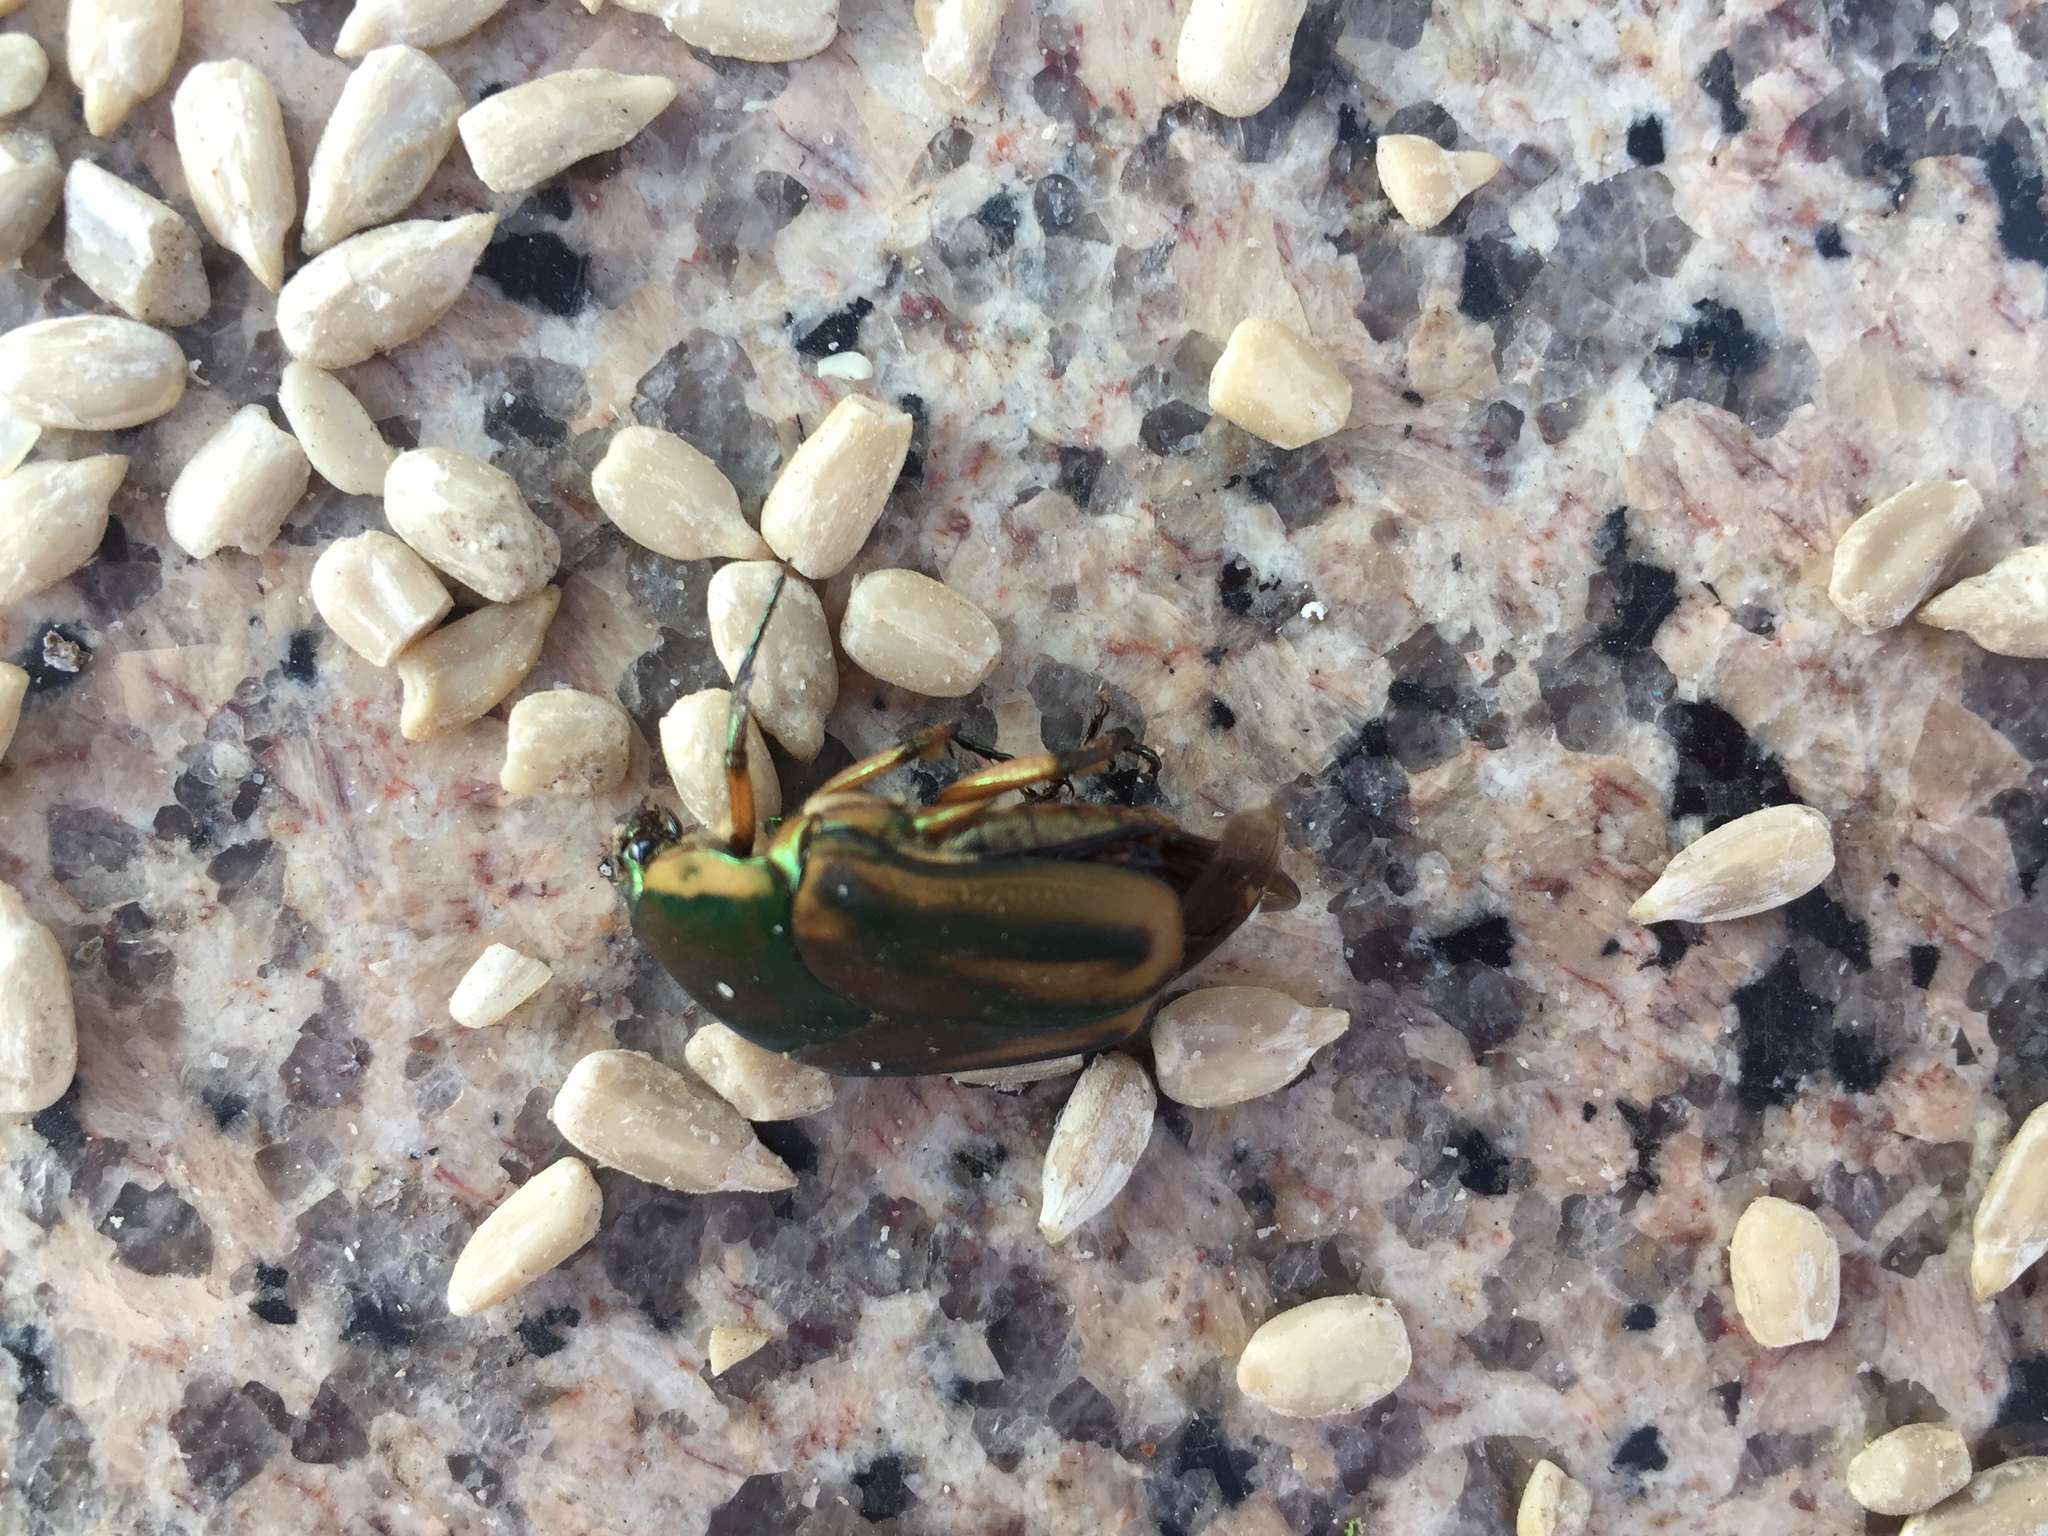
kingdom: Animalia
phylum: Arthropoda
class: Insecta
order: Coleoptera
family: Scarabaeidae
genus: Cotinis
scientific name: Cotinis nitida
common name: Common green june beetle
